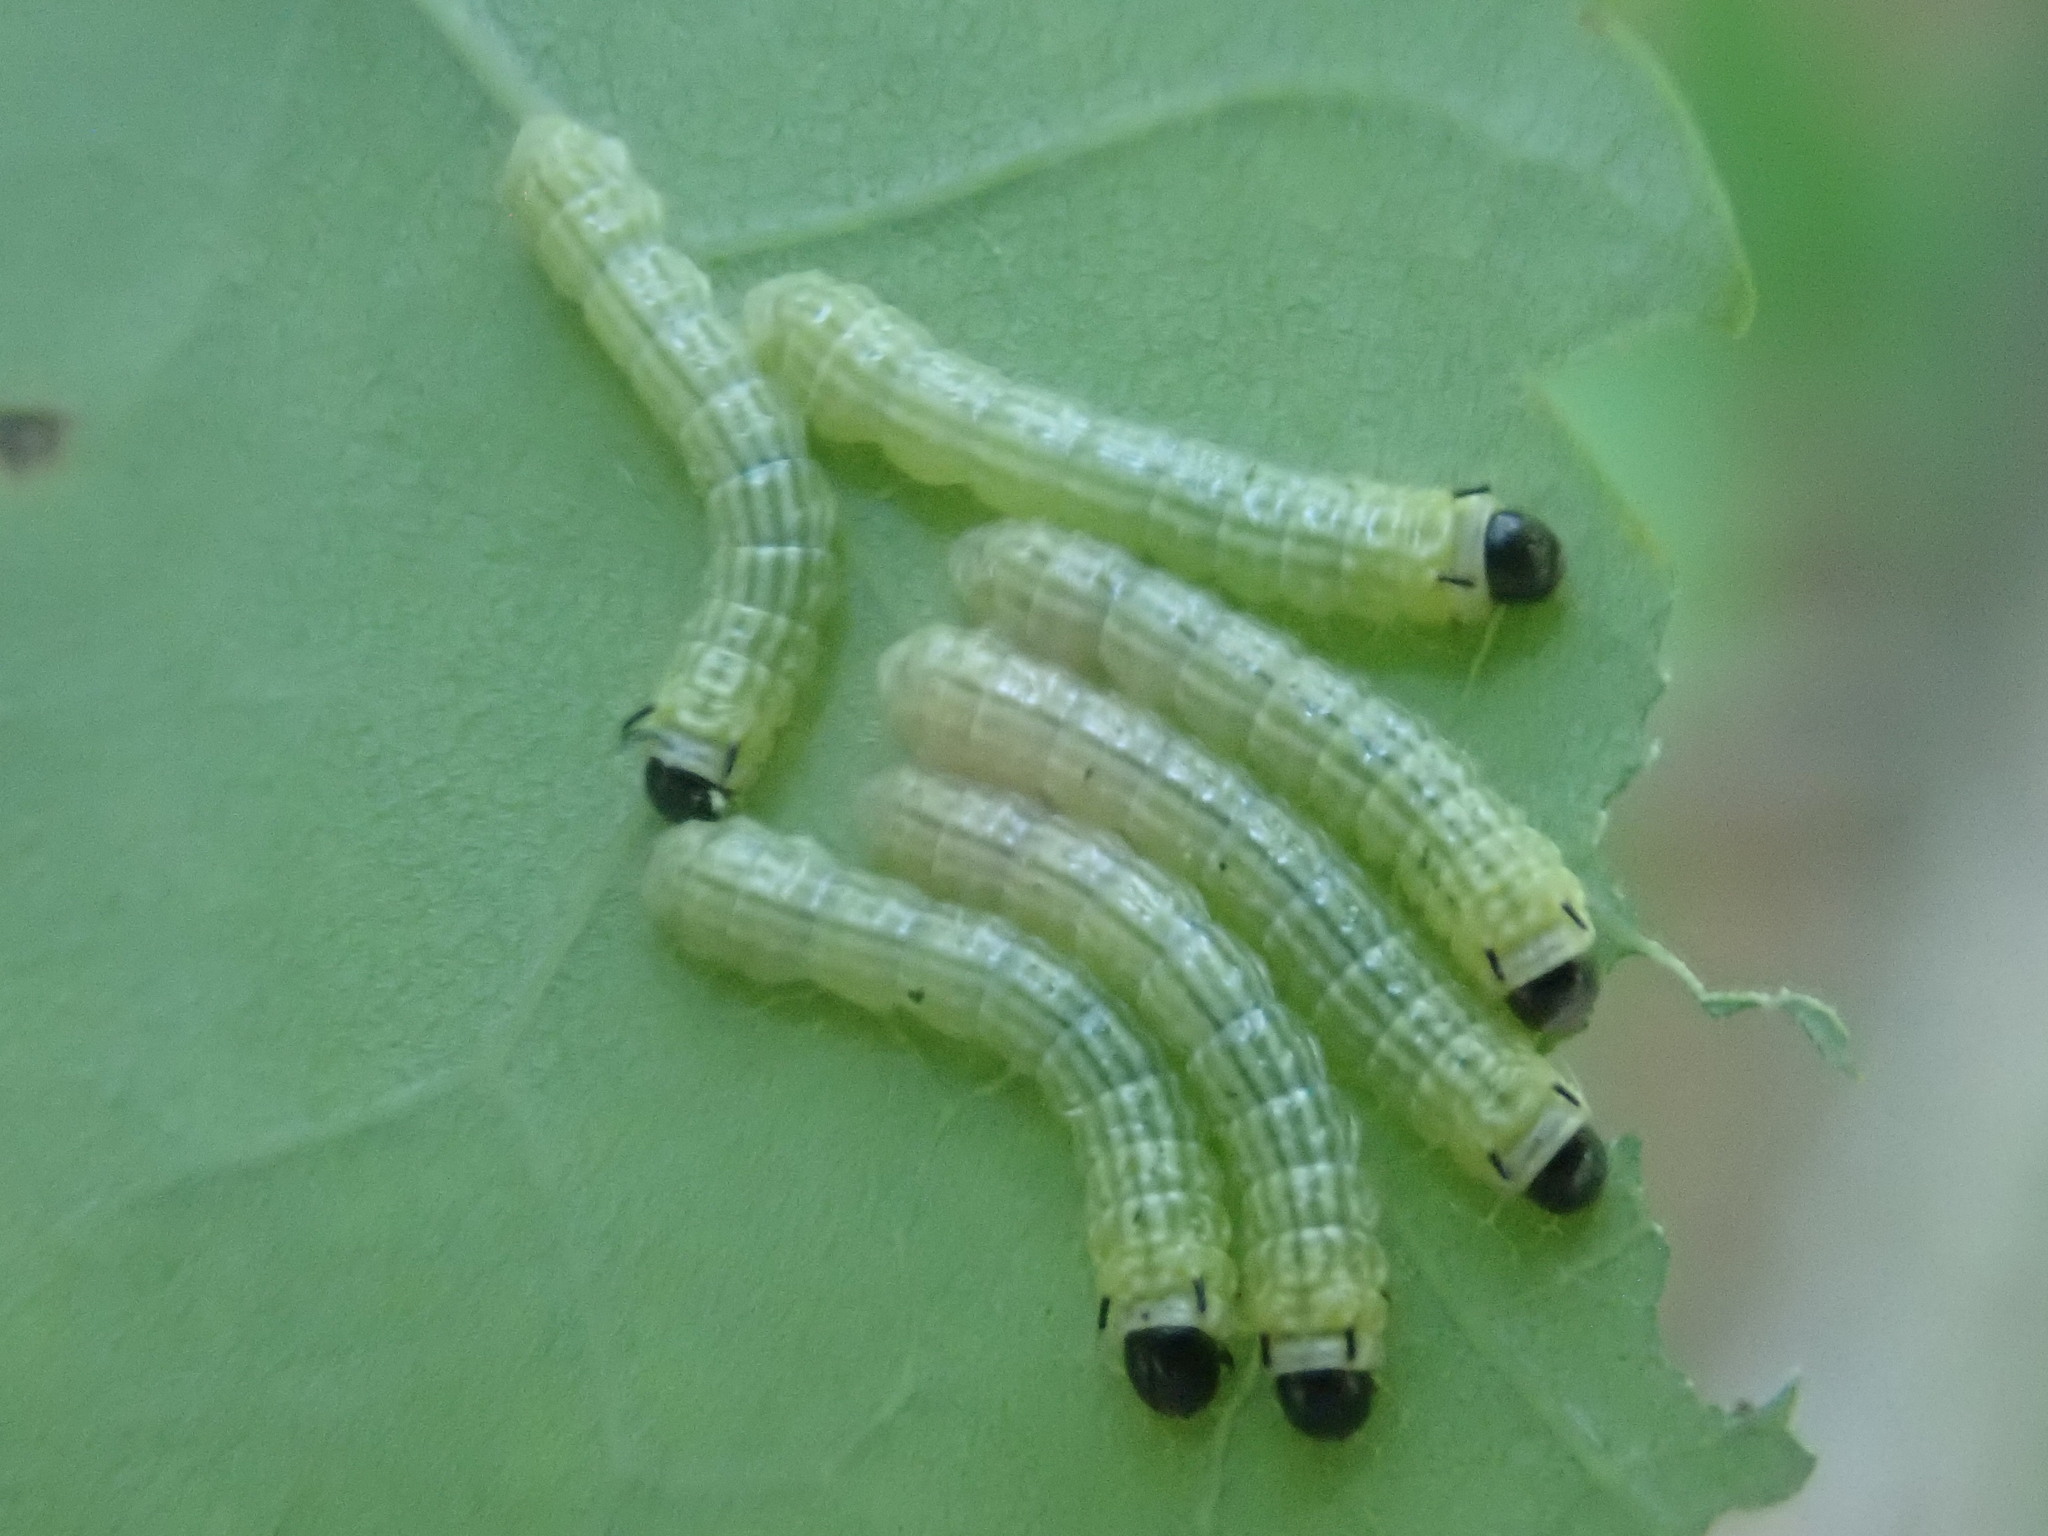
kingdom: Animalia
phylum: Arthropoda
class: Insecta
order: Lepidoptera
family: Saturniidae
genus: Dryocampa
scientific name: Dryocampa rubicunda
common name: Rosy maple moth
